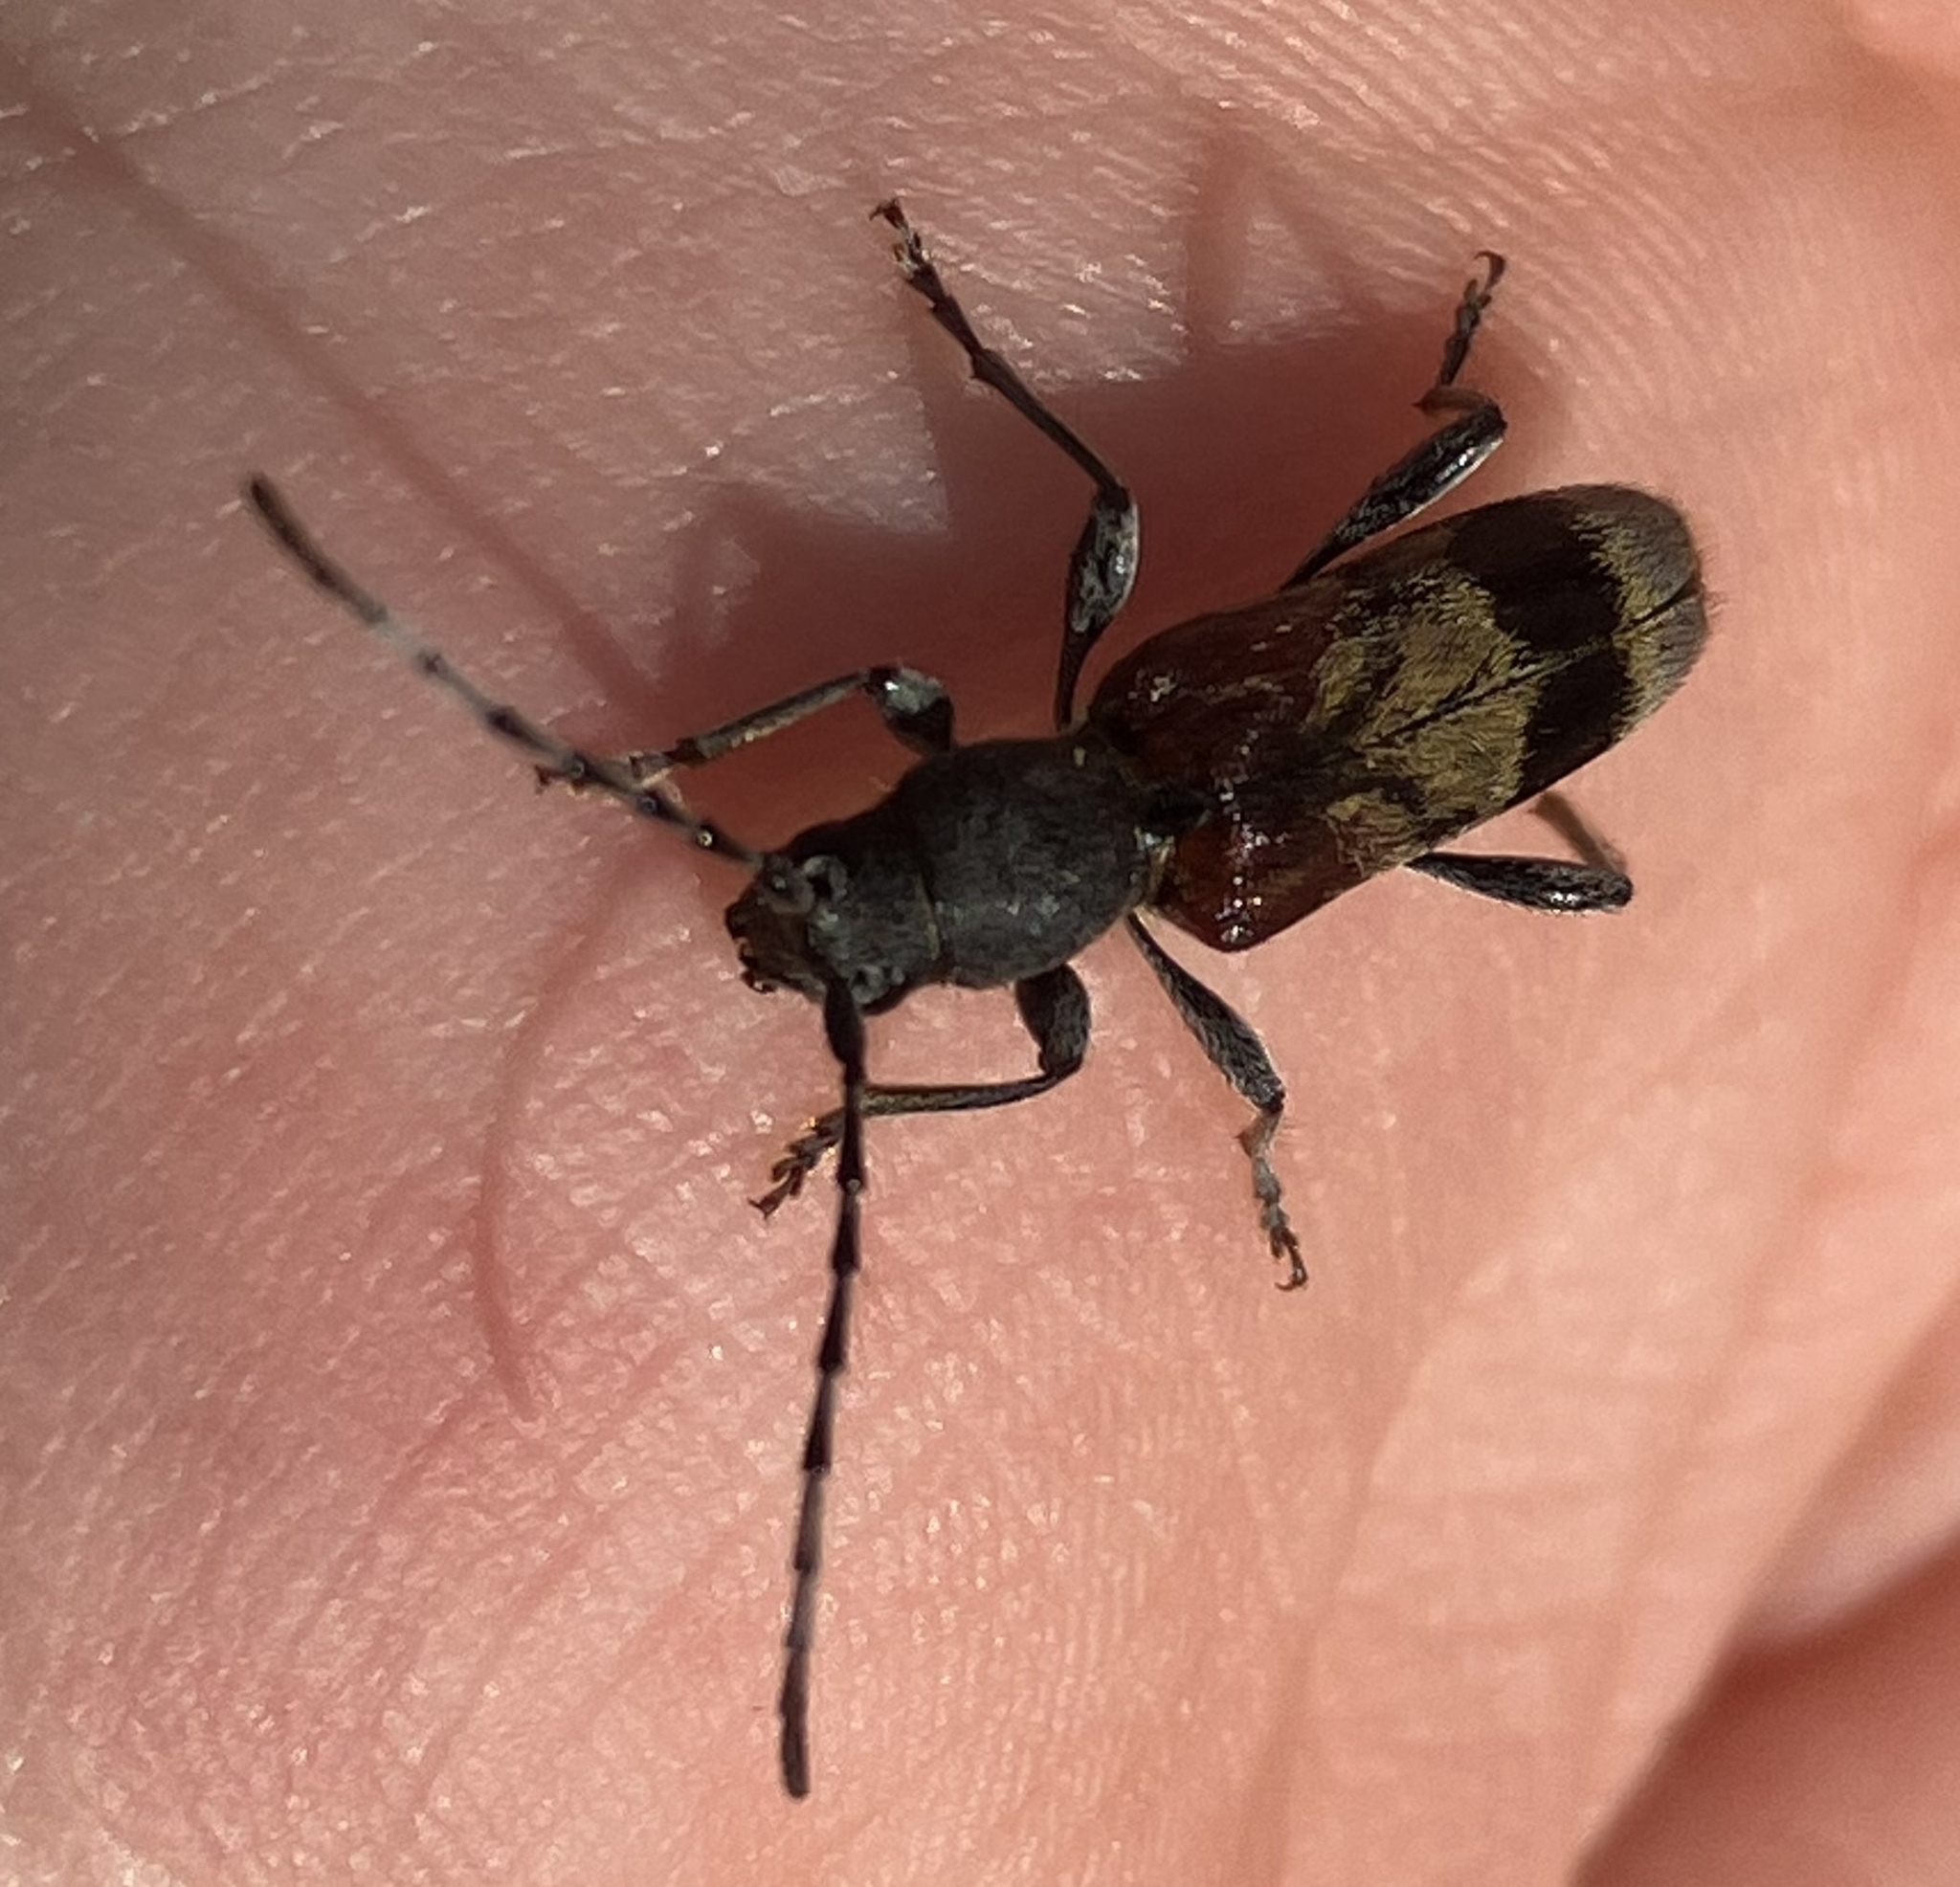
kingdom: Animalia
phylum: Arthropoda
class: Insecta
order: Coleoptera
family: Cerambycidae
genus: Anaglyptus
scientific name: Anaglyptus mysticus
